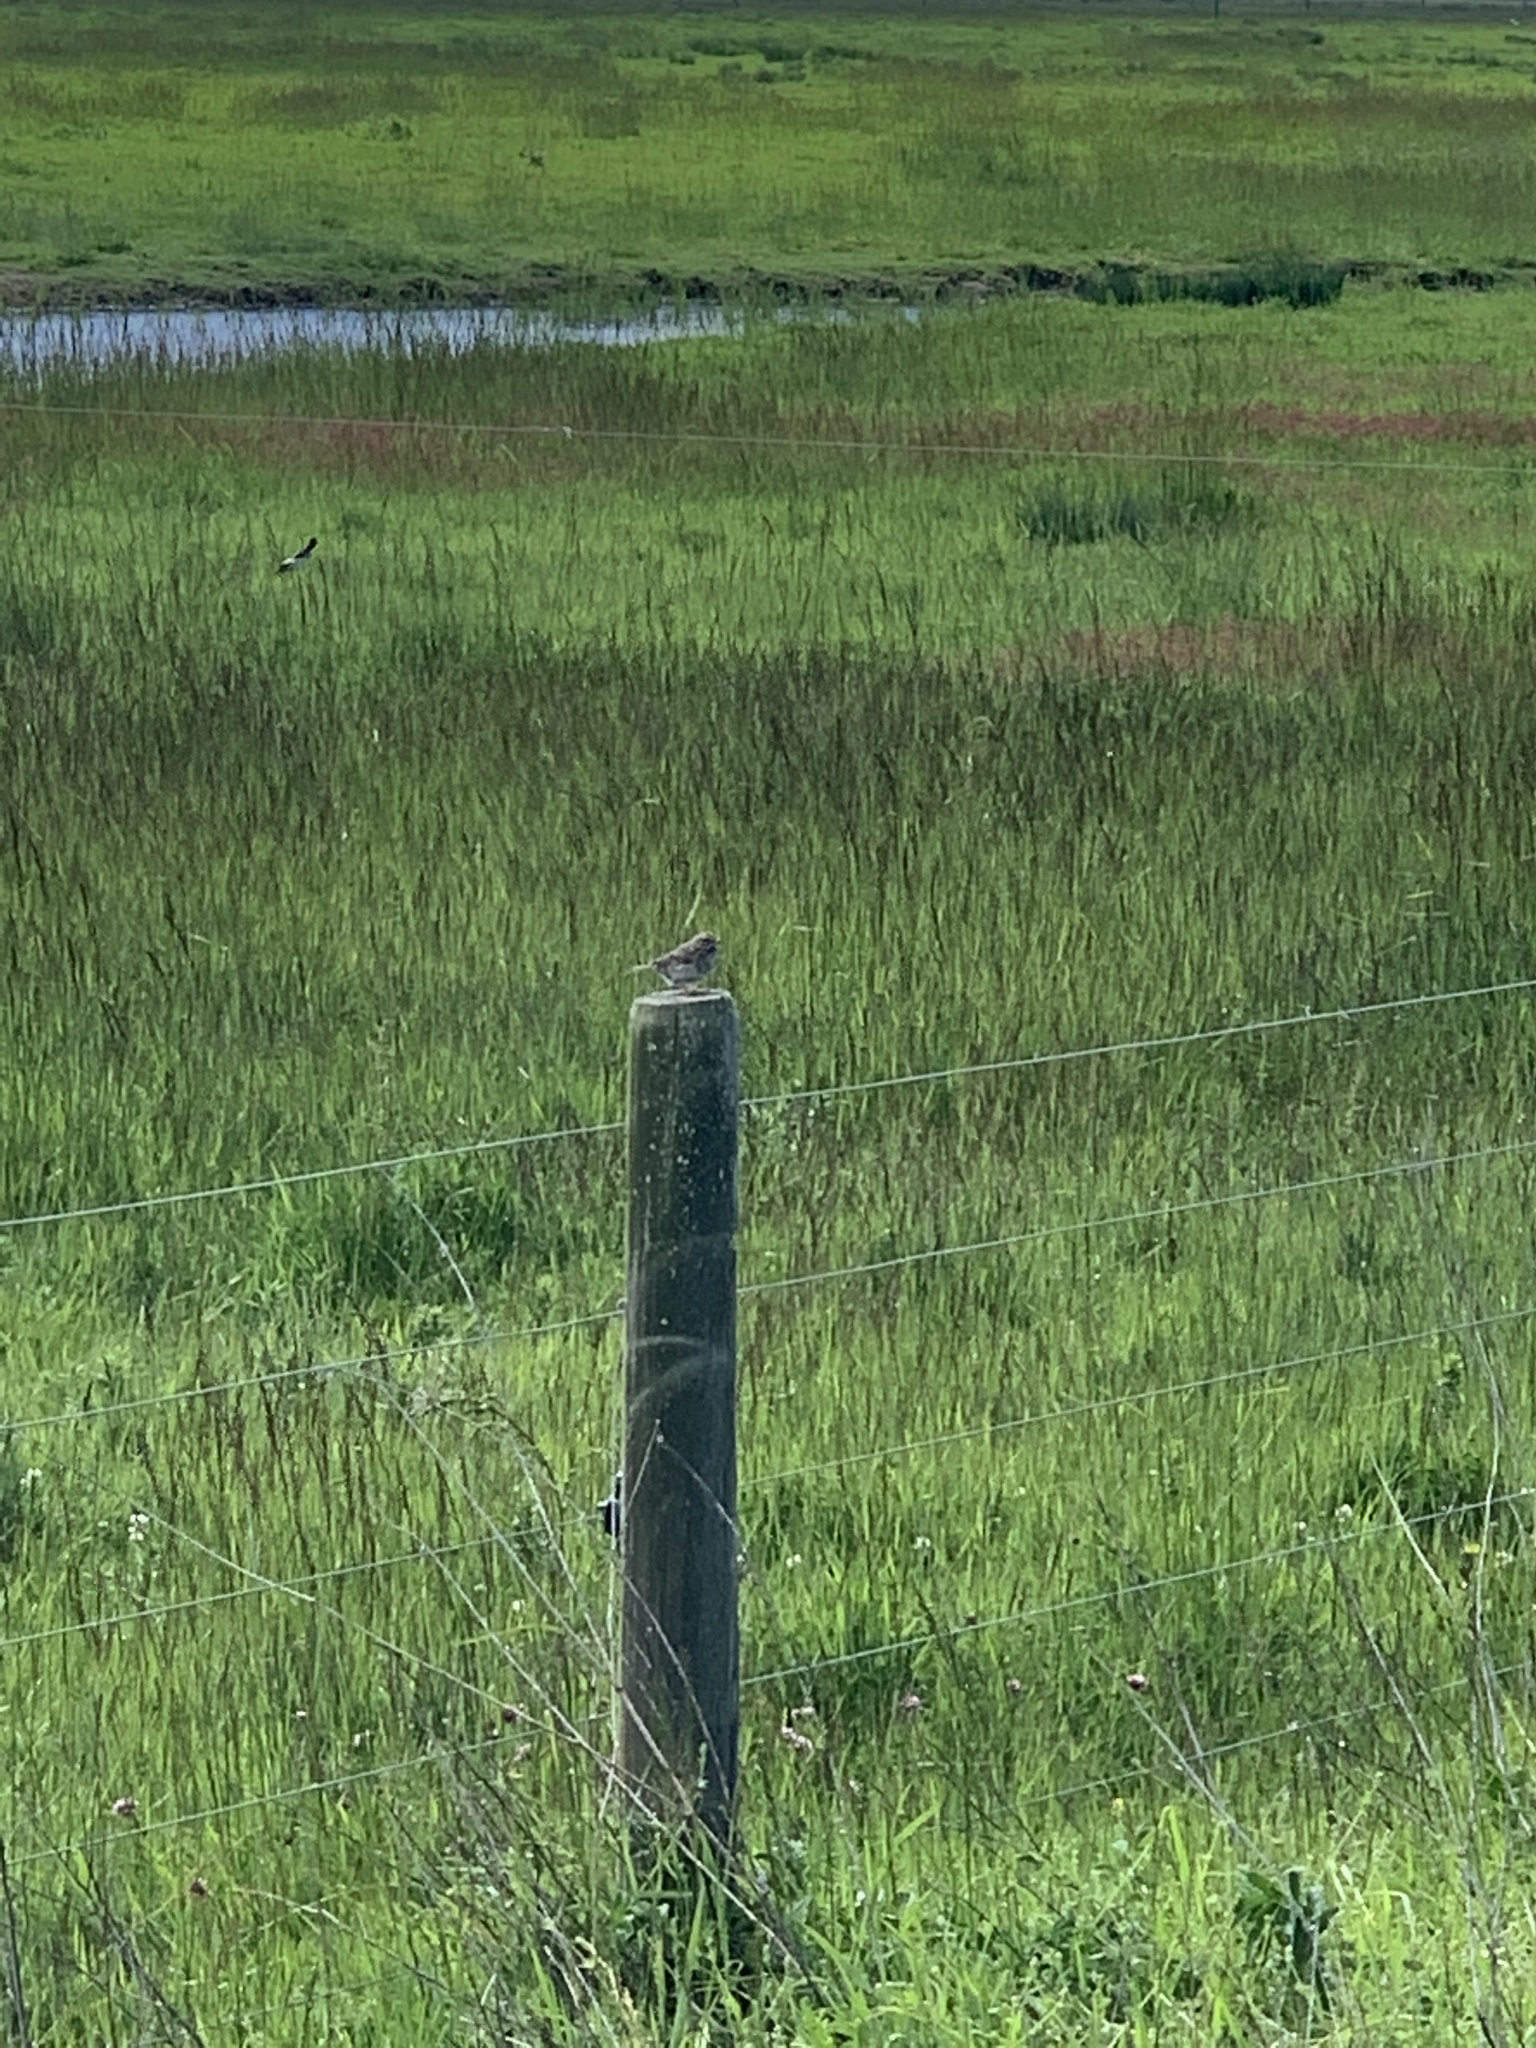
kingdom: Animalia
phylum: Chordata
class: Aves
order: Passeriformes
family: Passerellidae
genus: Passerculus
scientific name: Passerculus sandwichensis
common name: Savannah sparrow
